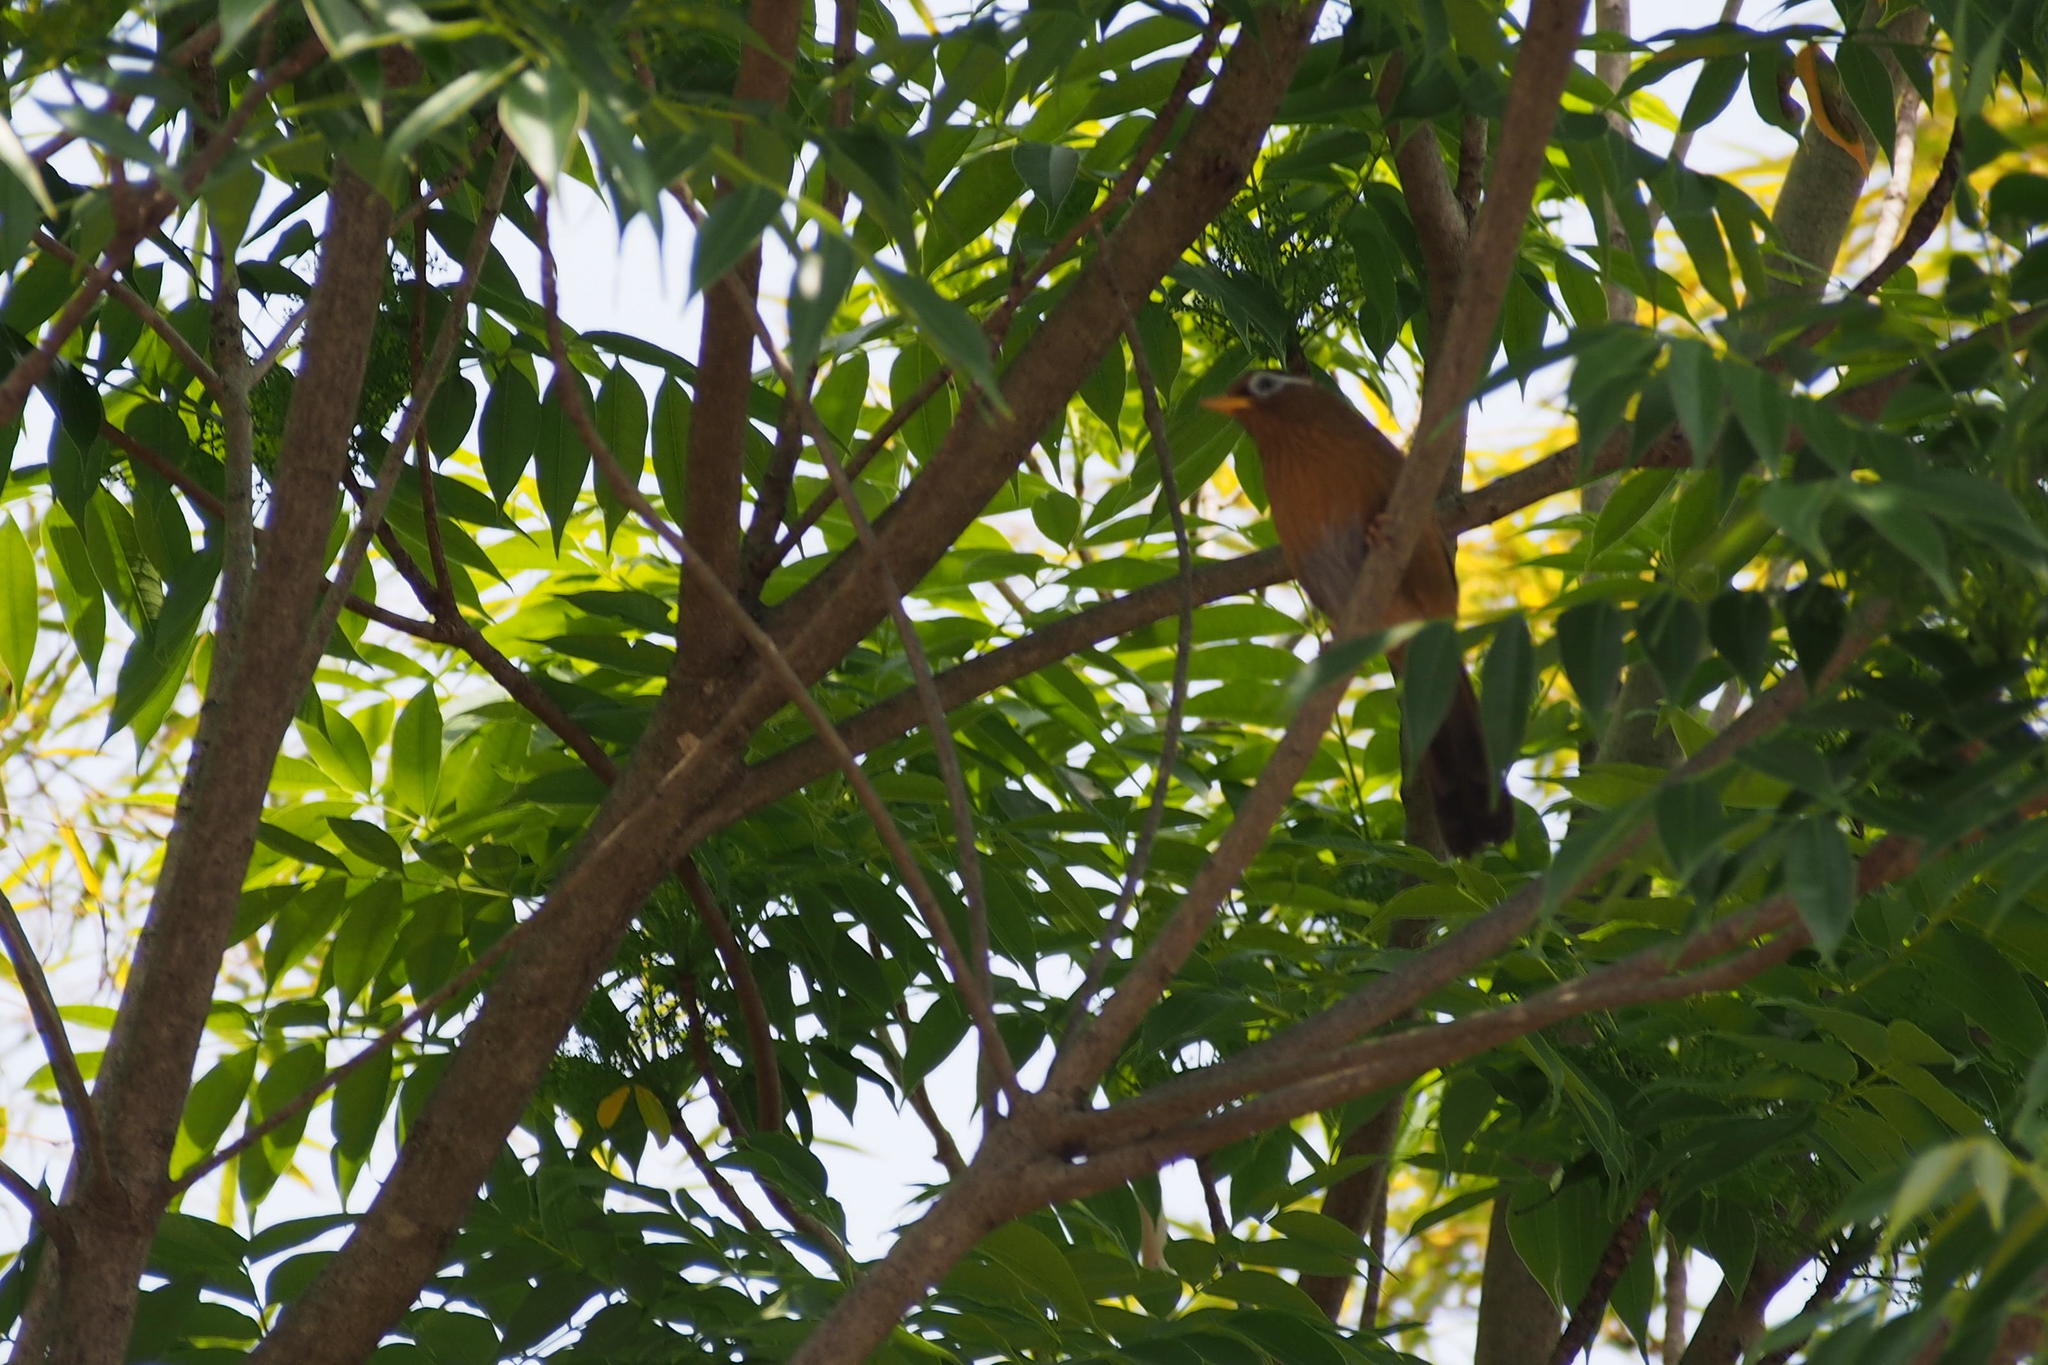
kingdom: Animalia
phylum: Chordata
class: Aves
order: Passeriformes
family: Leiothrichidae
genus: Garrulax
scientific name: Garrulax canorus
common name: Chinese hwamei
